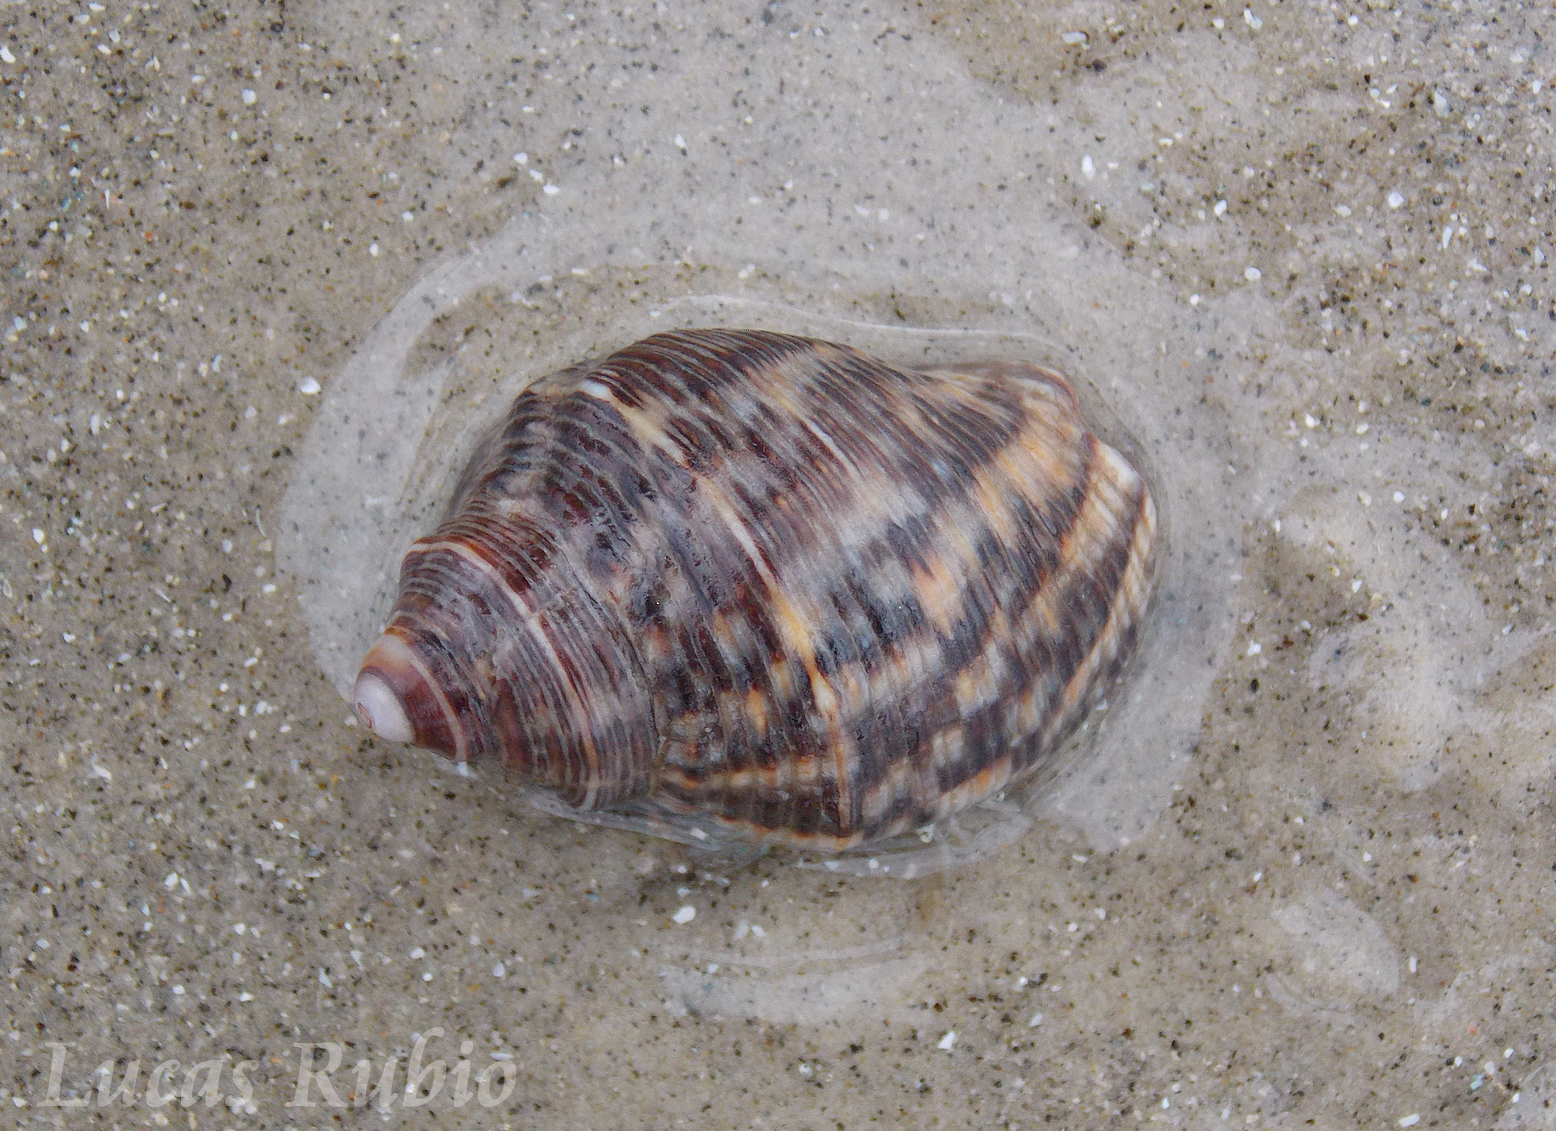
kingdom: Animalia
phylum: Mollusca
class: Gastropoda
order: Neogastropoda
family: Muricidae
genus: Stramonita
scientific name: Stramonita brasiliensis
